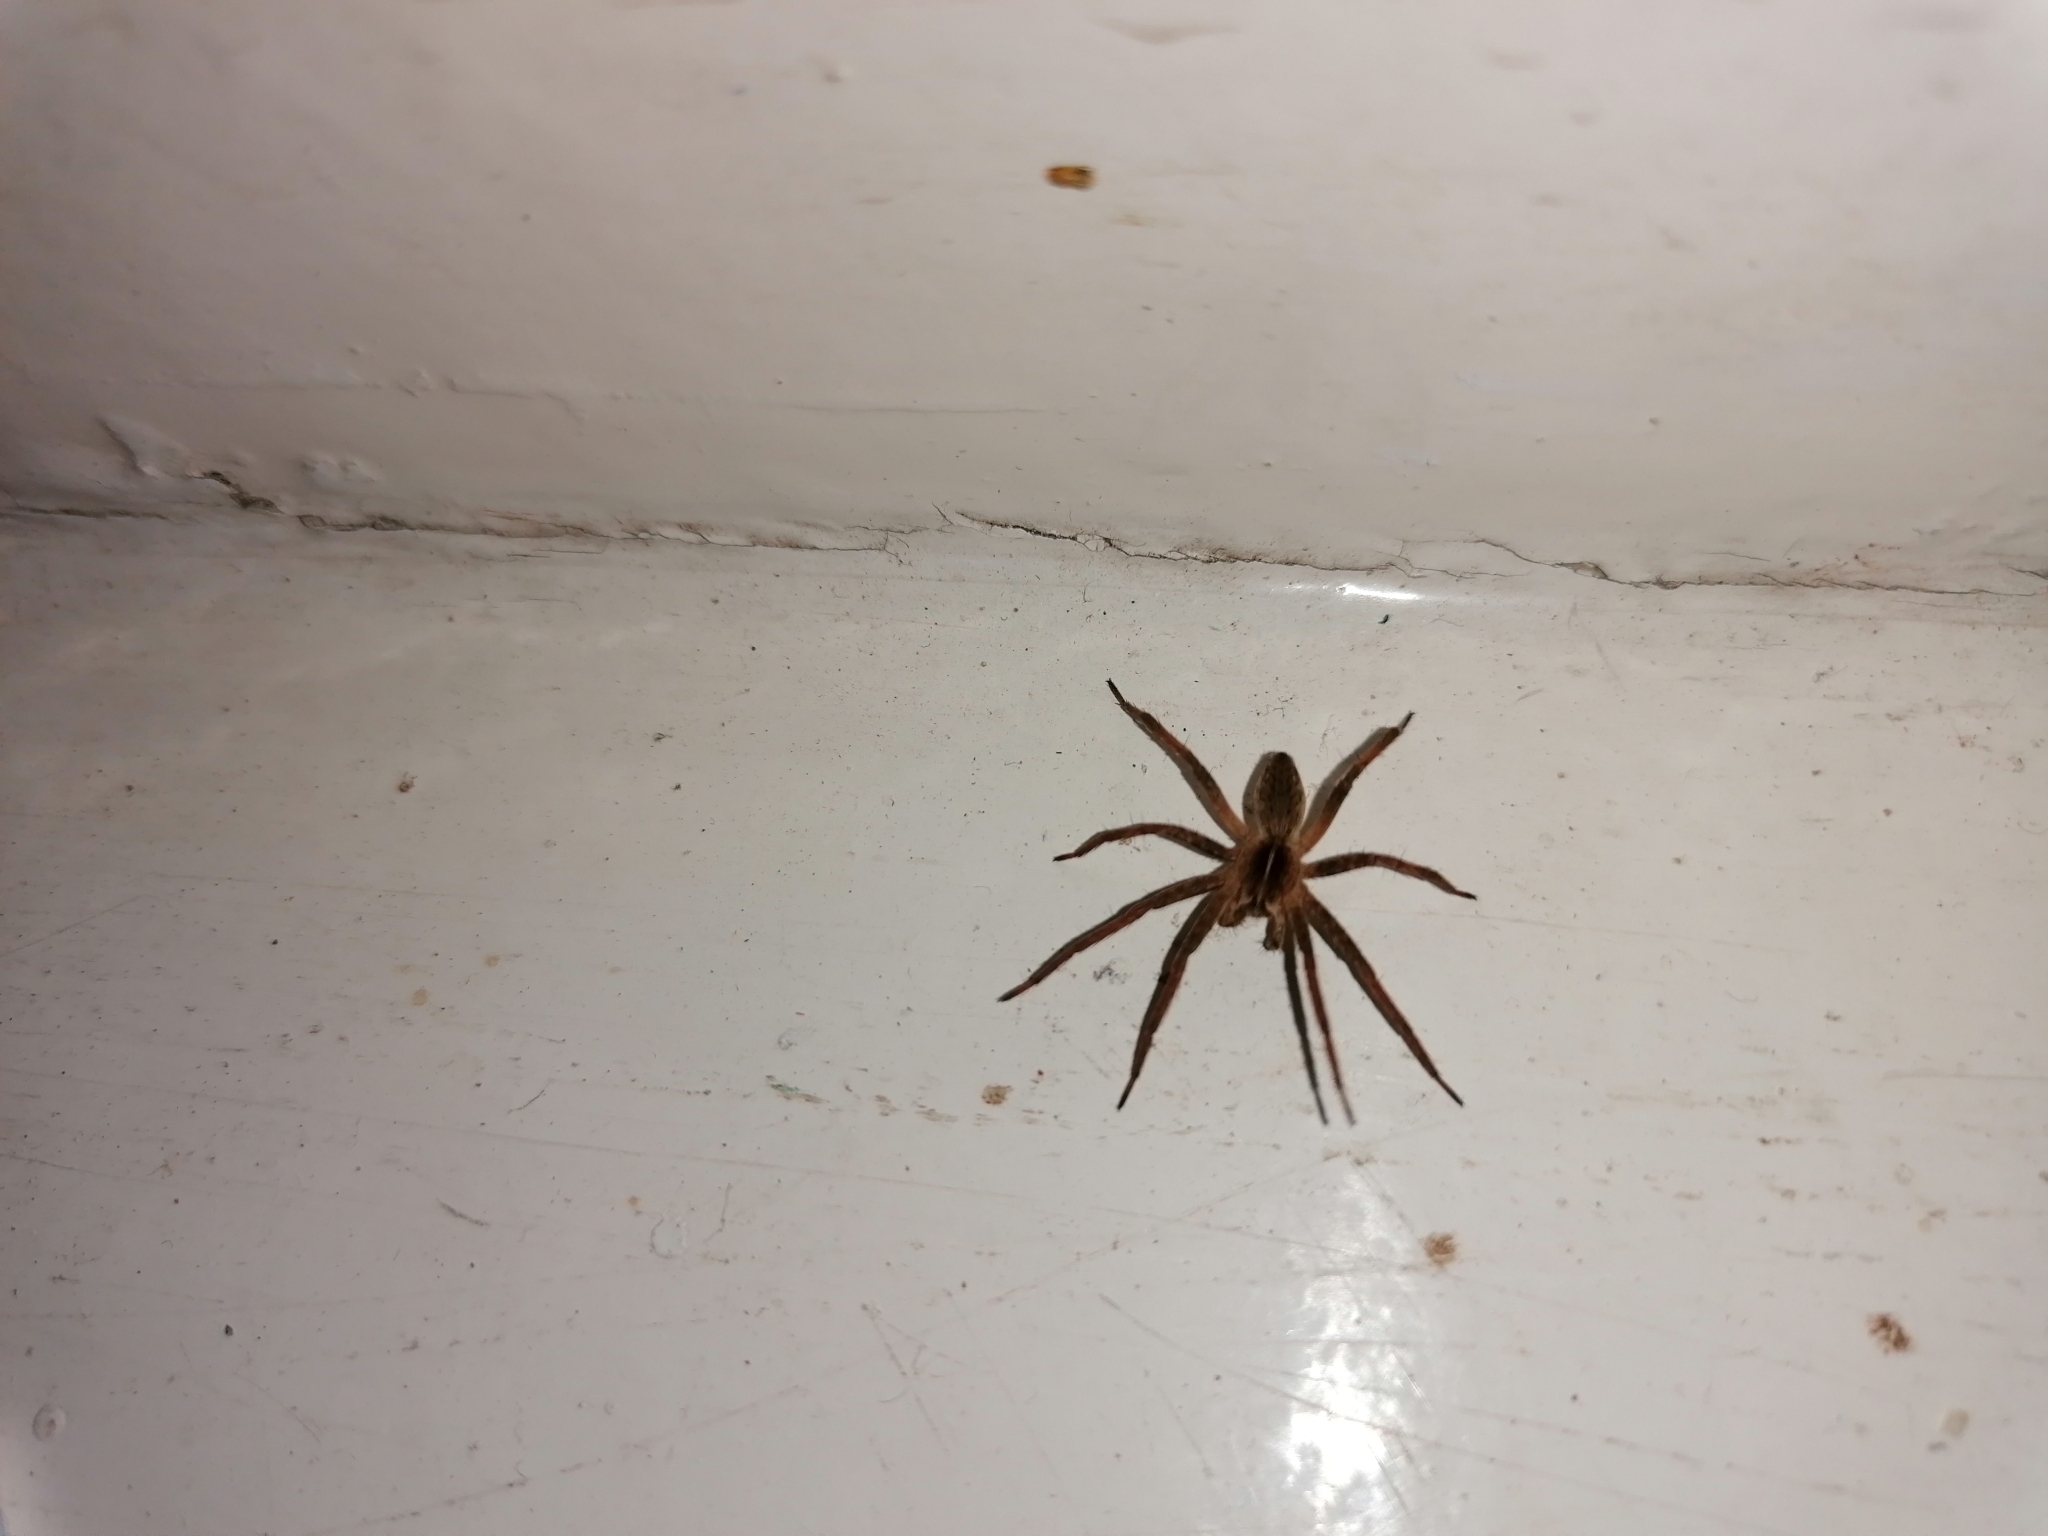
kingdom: Animalia
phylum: Arthropoda
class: Arachnida
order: Araneae
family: Pisauridae
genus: Pisaura
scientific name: Pisaura mirabilis
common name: Tent spider
